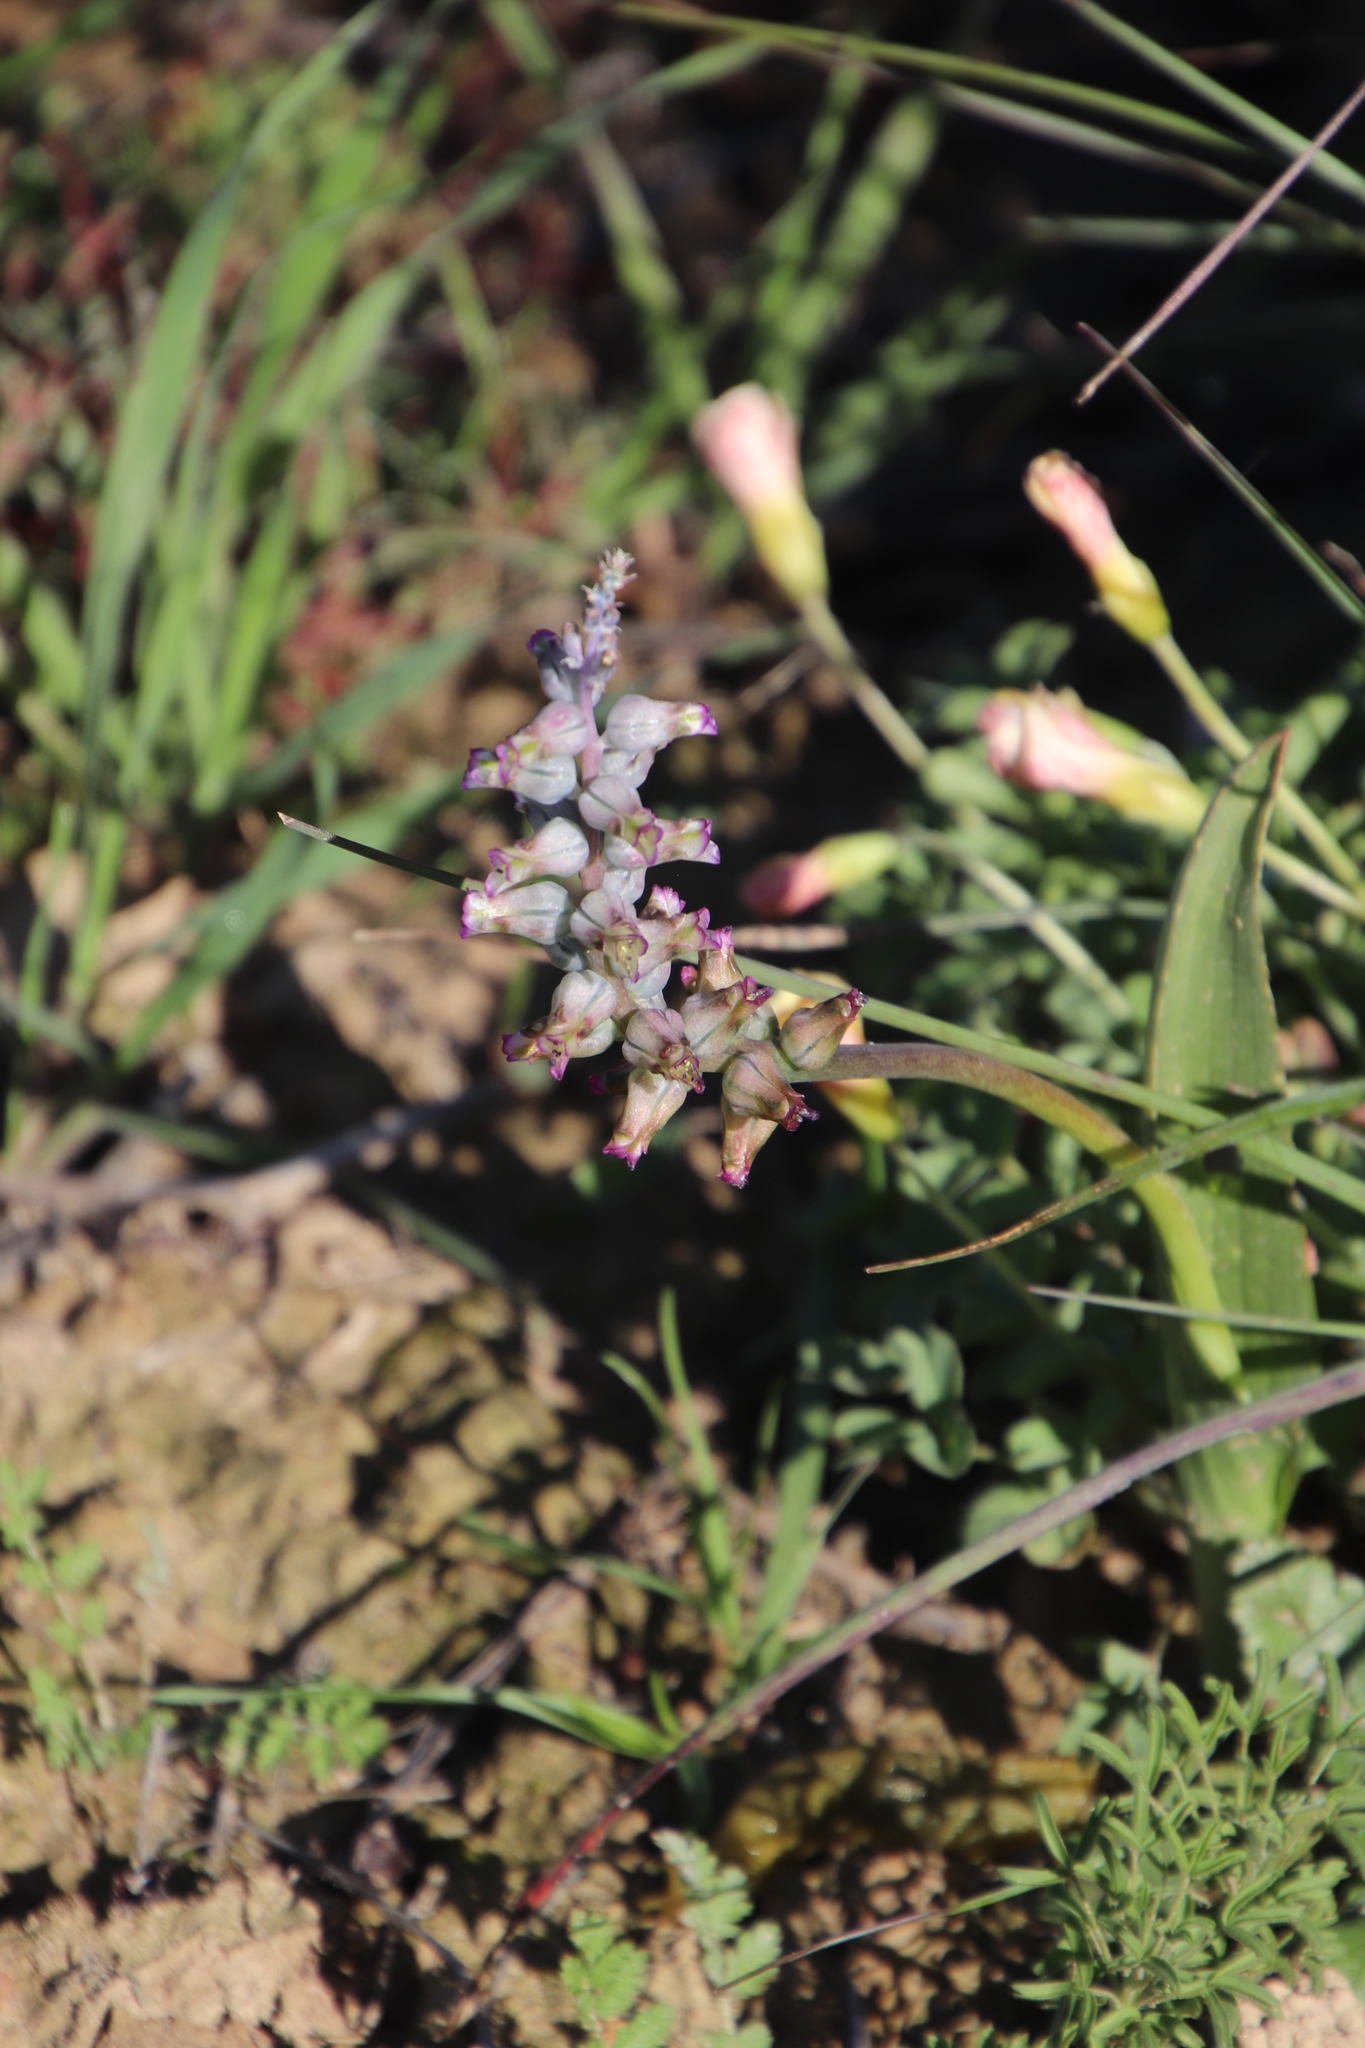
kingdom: Plantae
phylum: Tracheophyta
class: Liliopsida
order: Asparagales
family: Asparagaceae
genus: Lachenalia
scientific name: Lachenalia obscura
